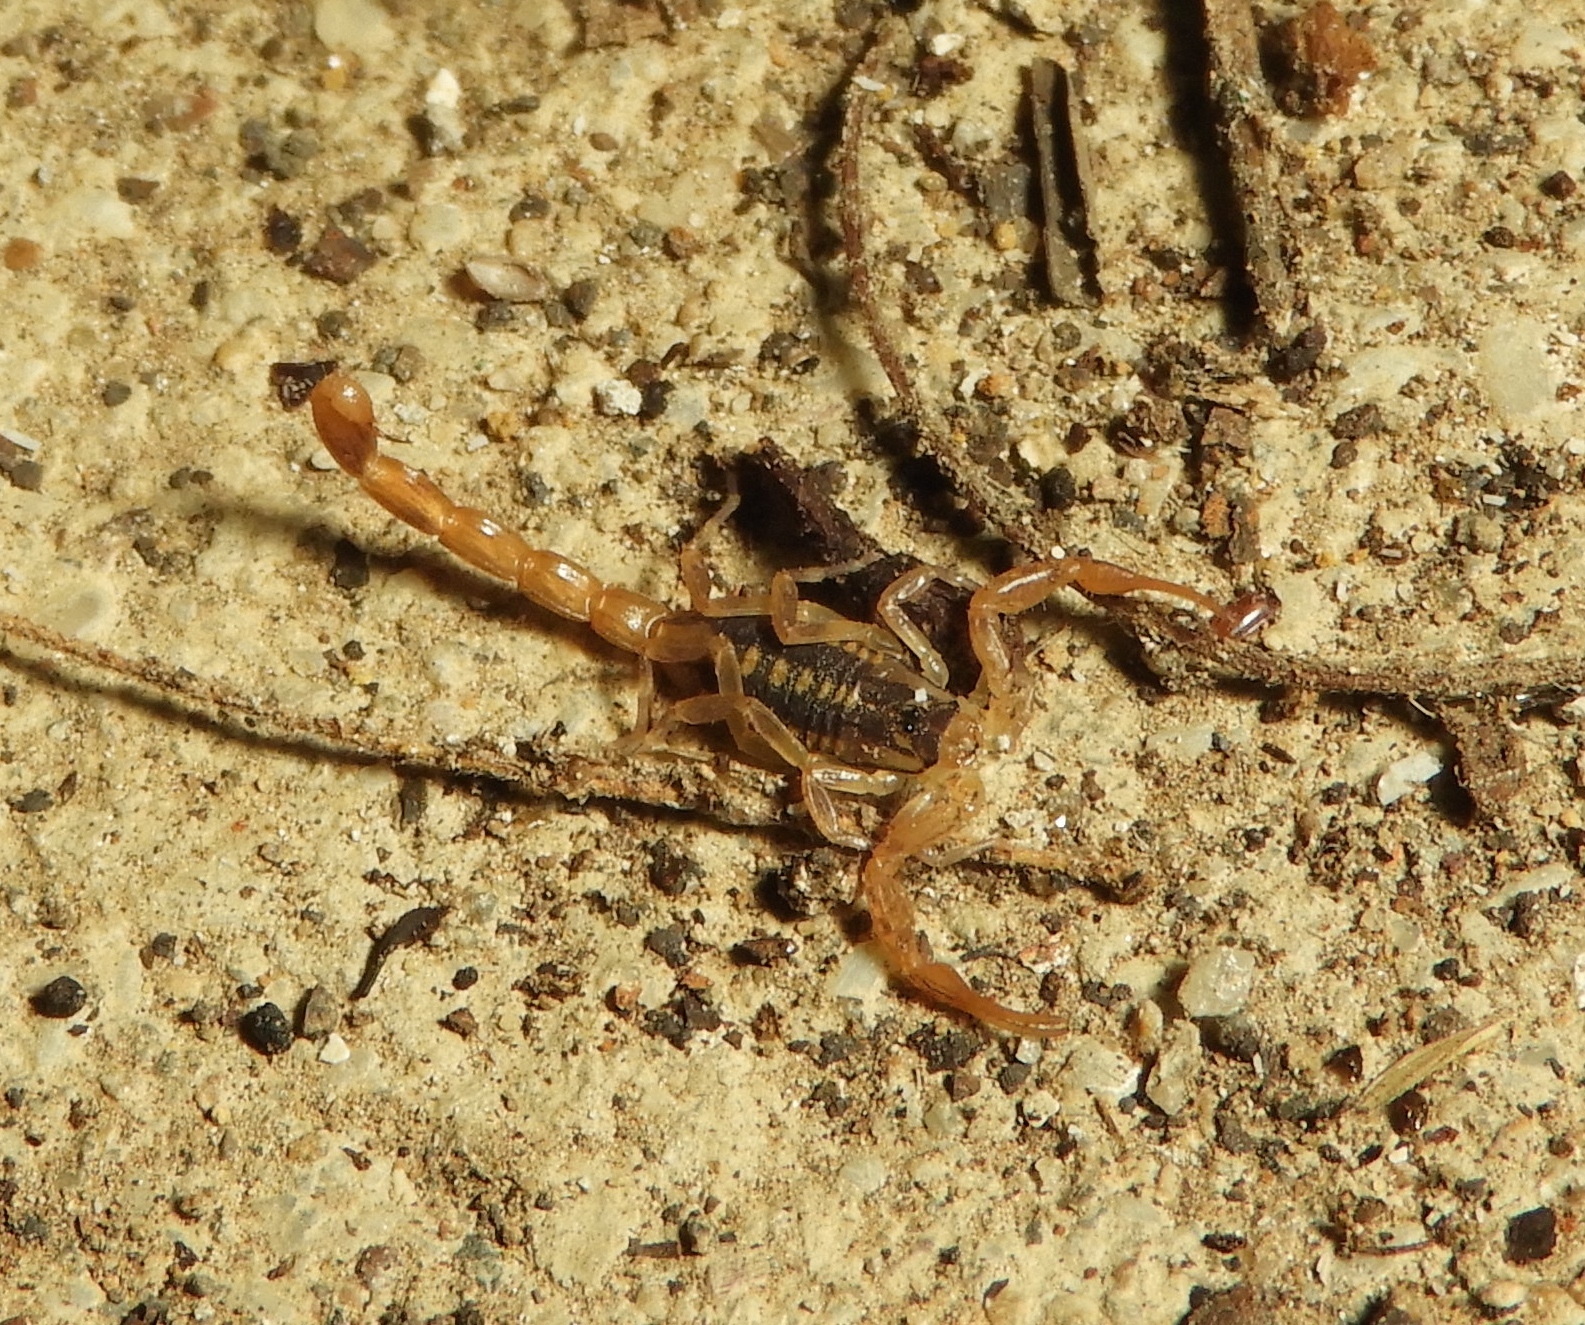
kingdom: Animalia
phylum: Arthropoda
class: Arachnida
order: Scorpiones
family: Buthidae
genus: Centruroides
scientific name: Centruroides baldazoi
